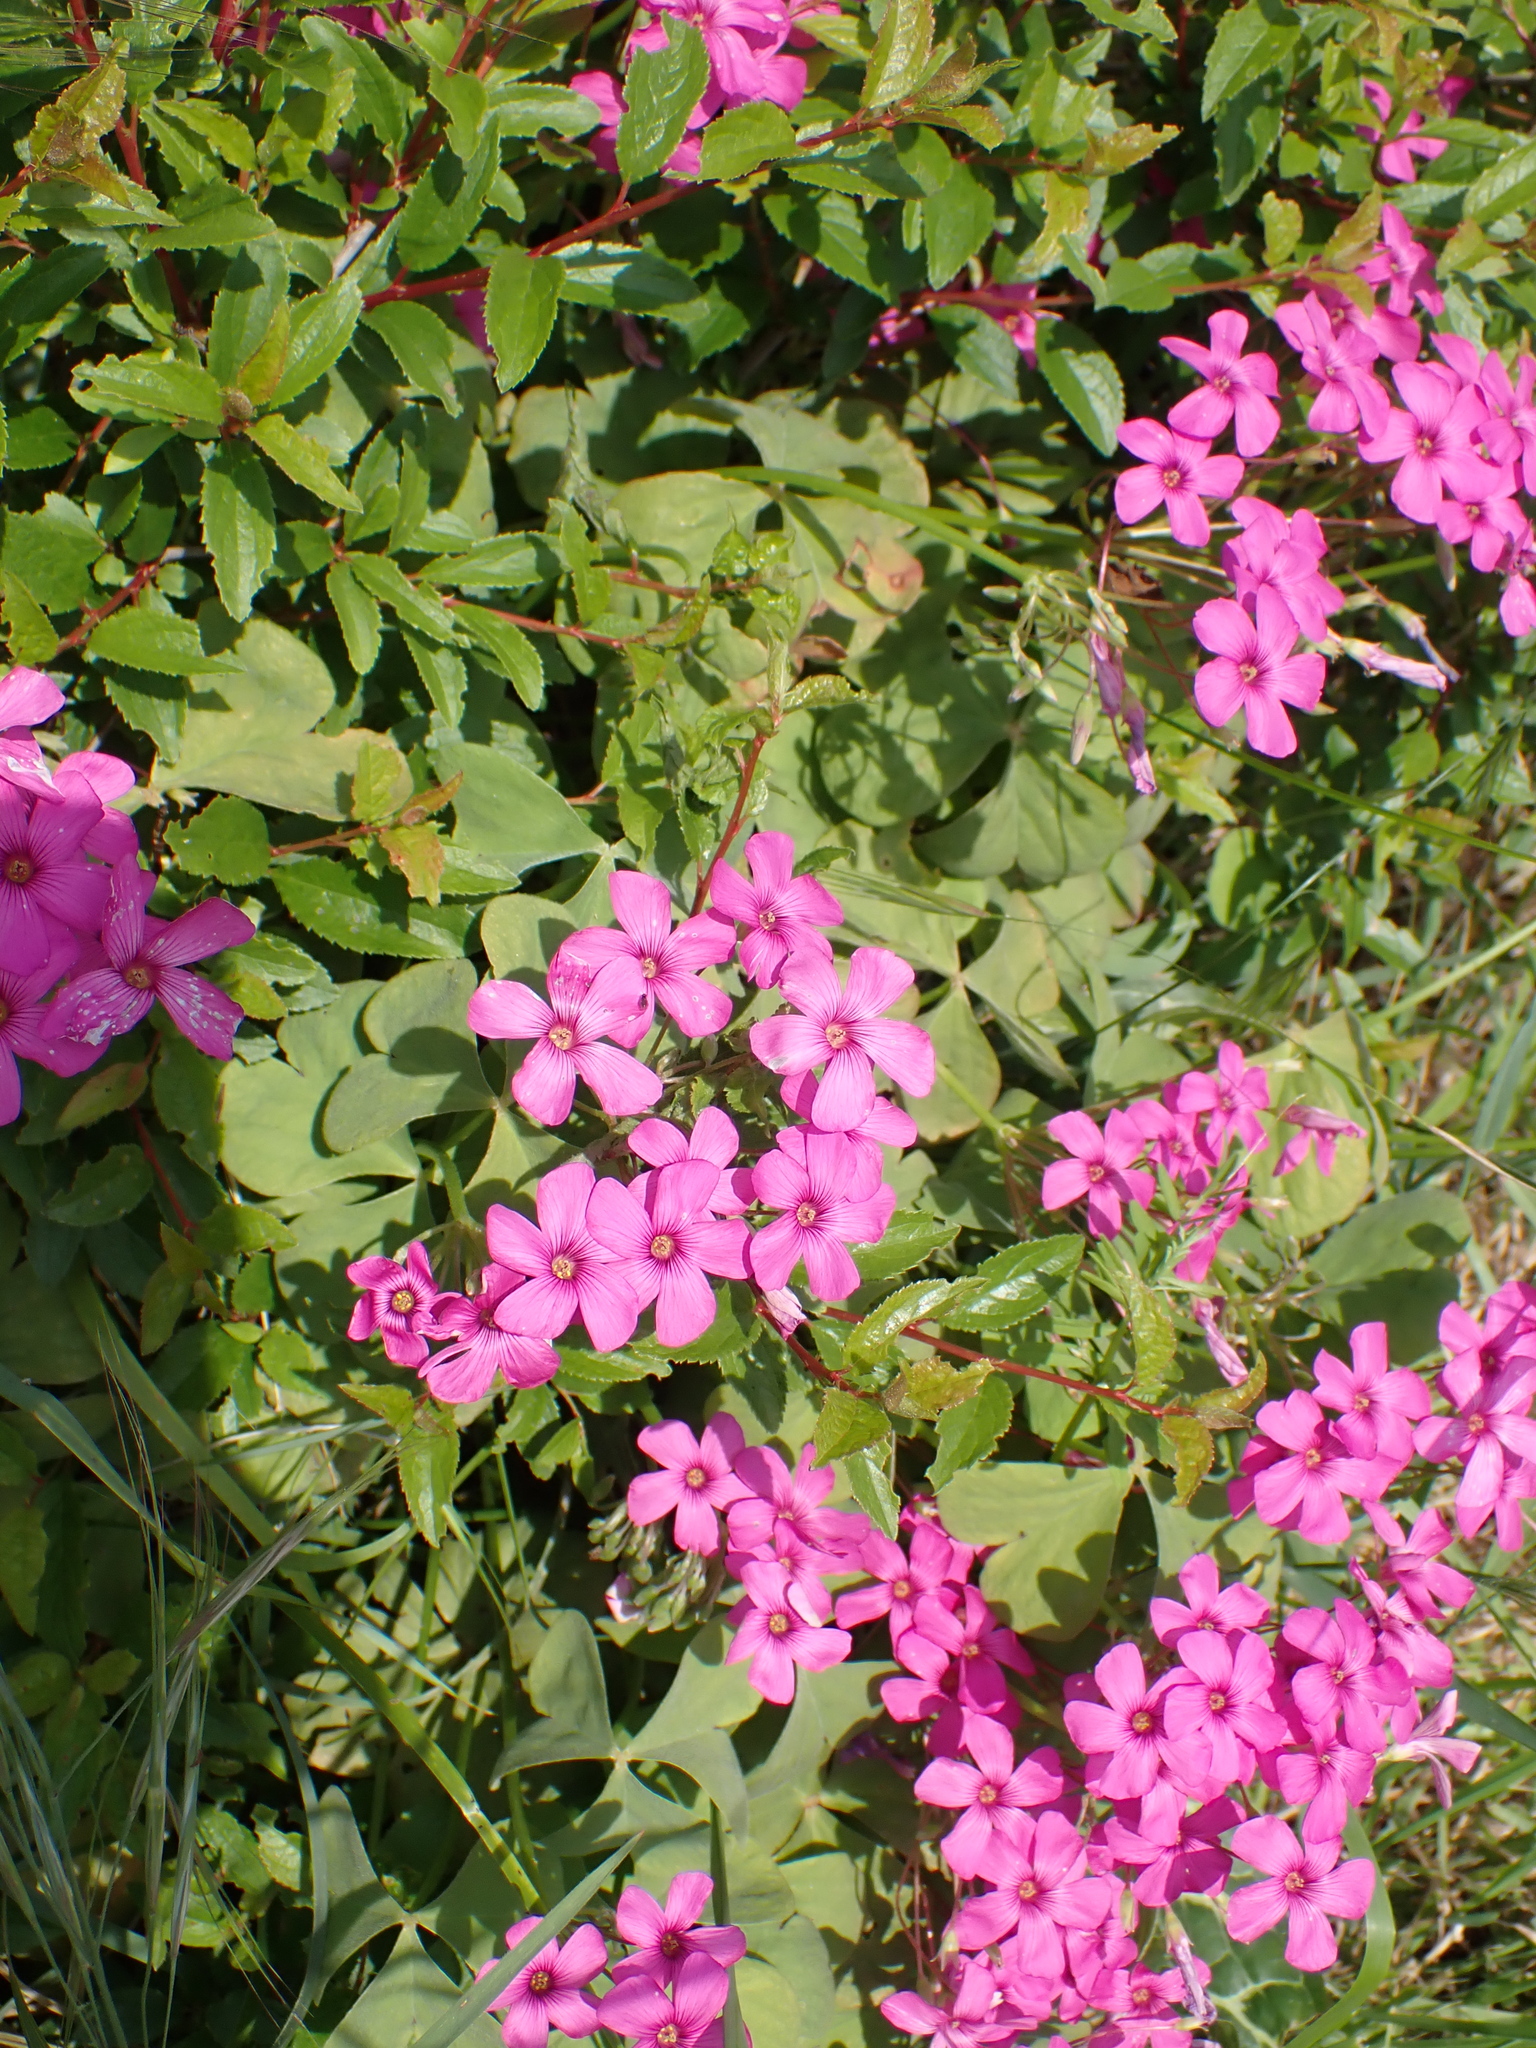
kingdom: Plantae
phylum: Tracheophyta
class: Magnoliopsida
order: Oxalidales
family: Oxalidaceae
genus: Oxalis
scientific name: Oxalis articulata
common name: Pink-sorrel
